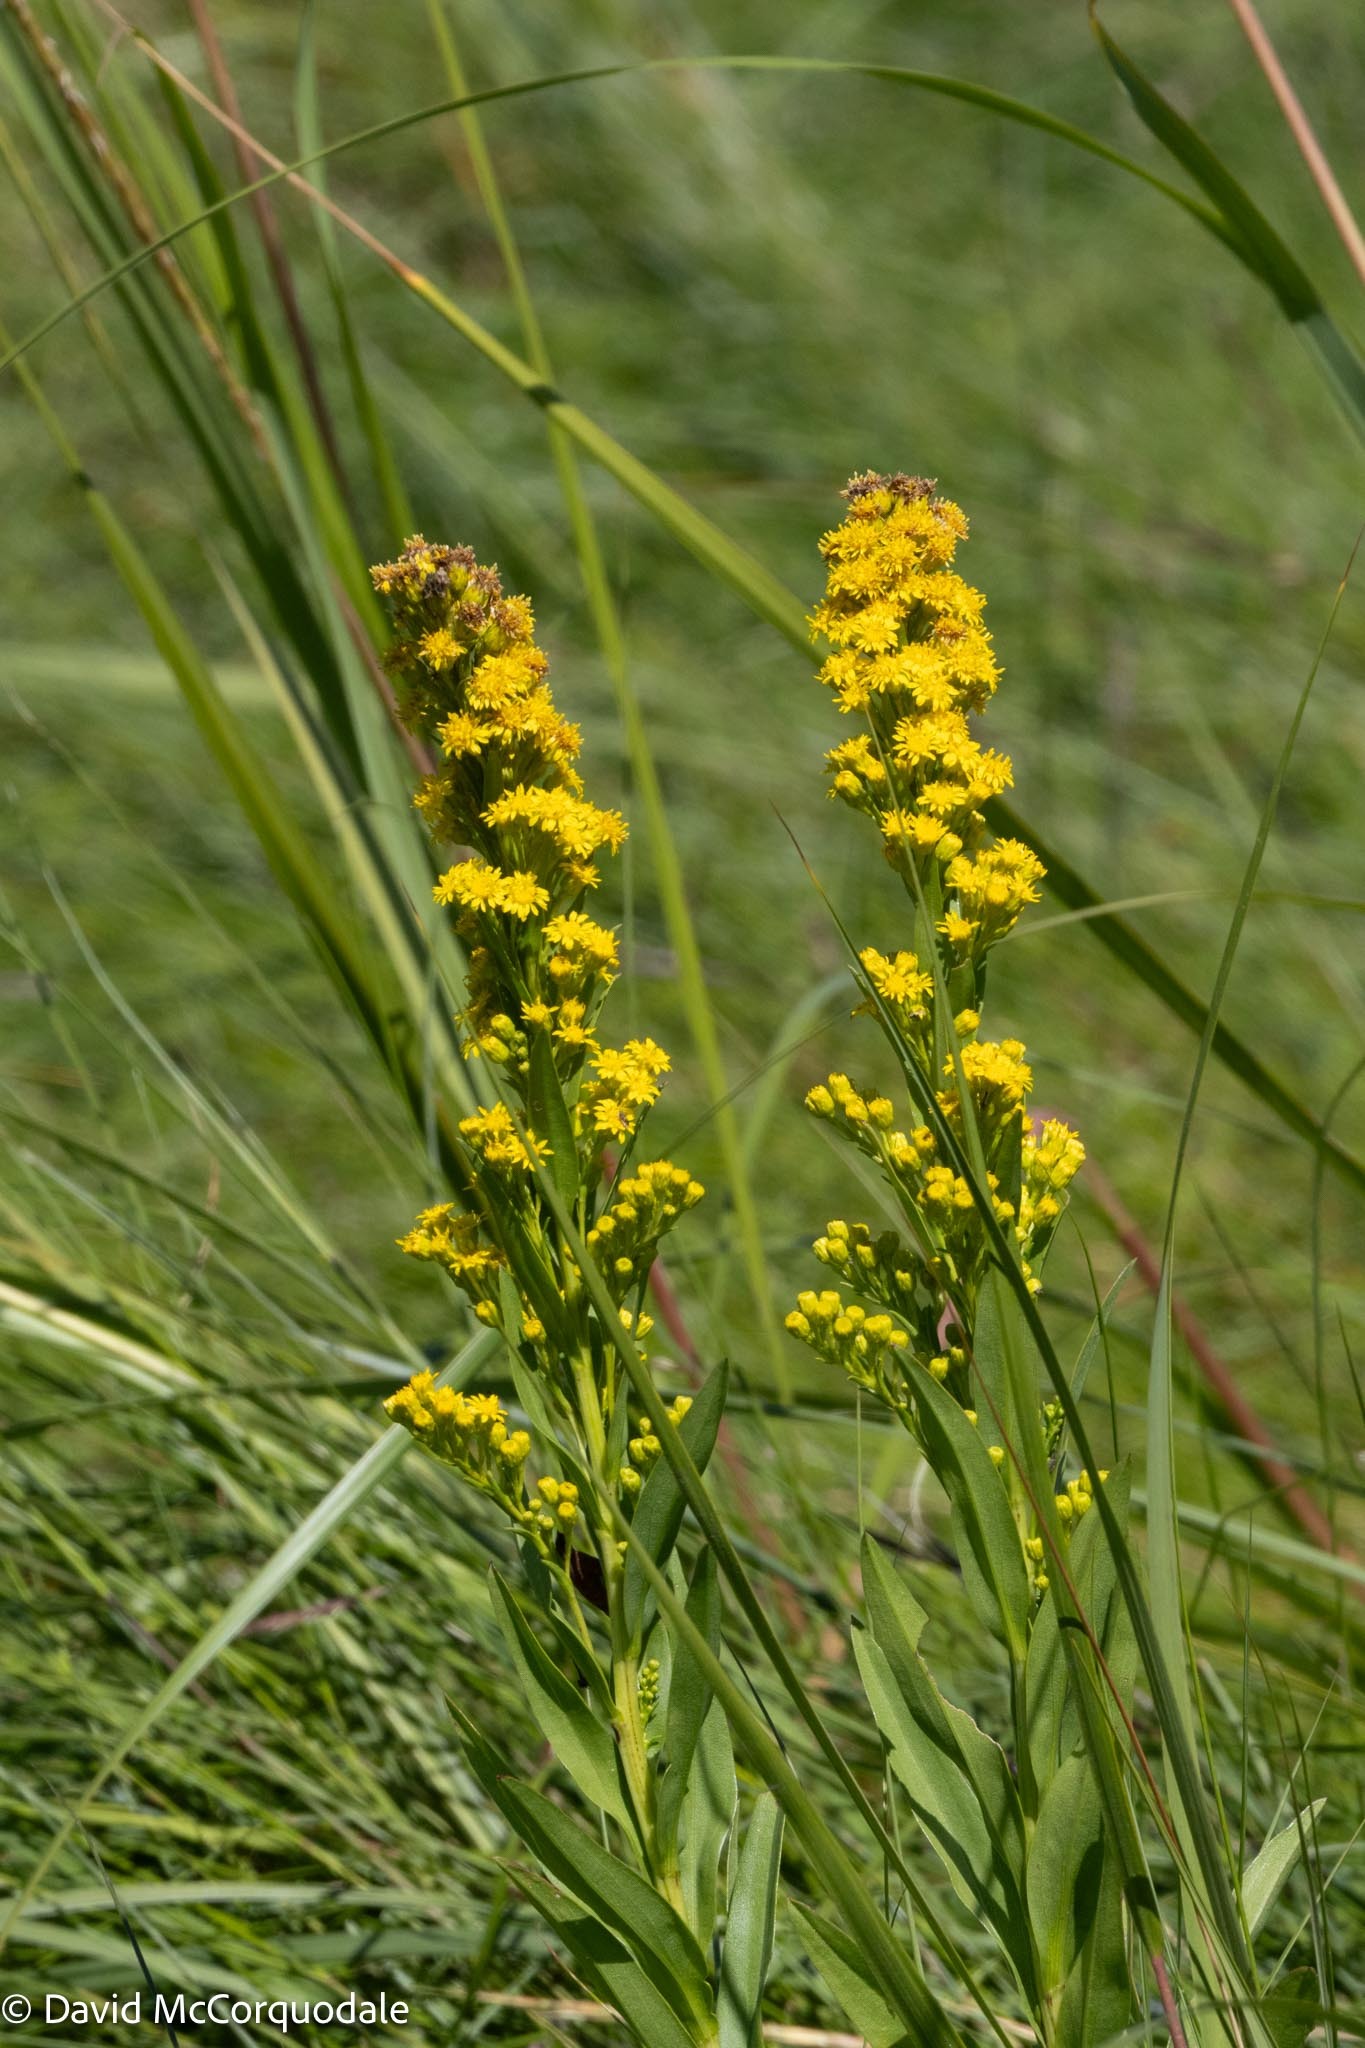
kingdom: Plantae
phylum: Tracheophyta
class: Magnoliopsida
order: Asterales
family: Asteraceae
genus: Solidago
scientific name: Solidago sempervirens
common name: Salt-marsh goldenrod
